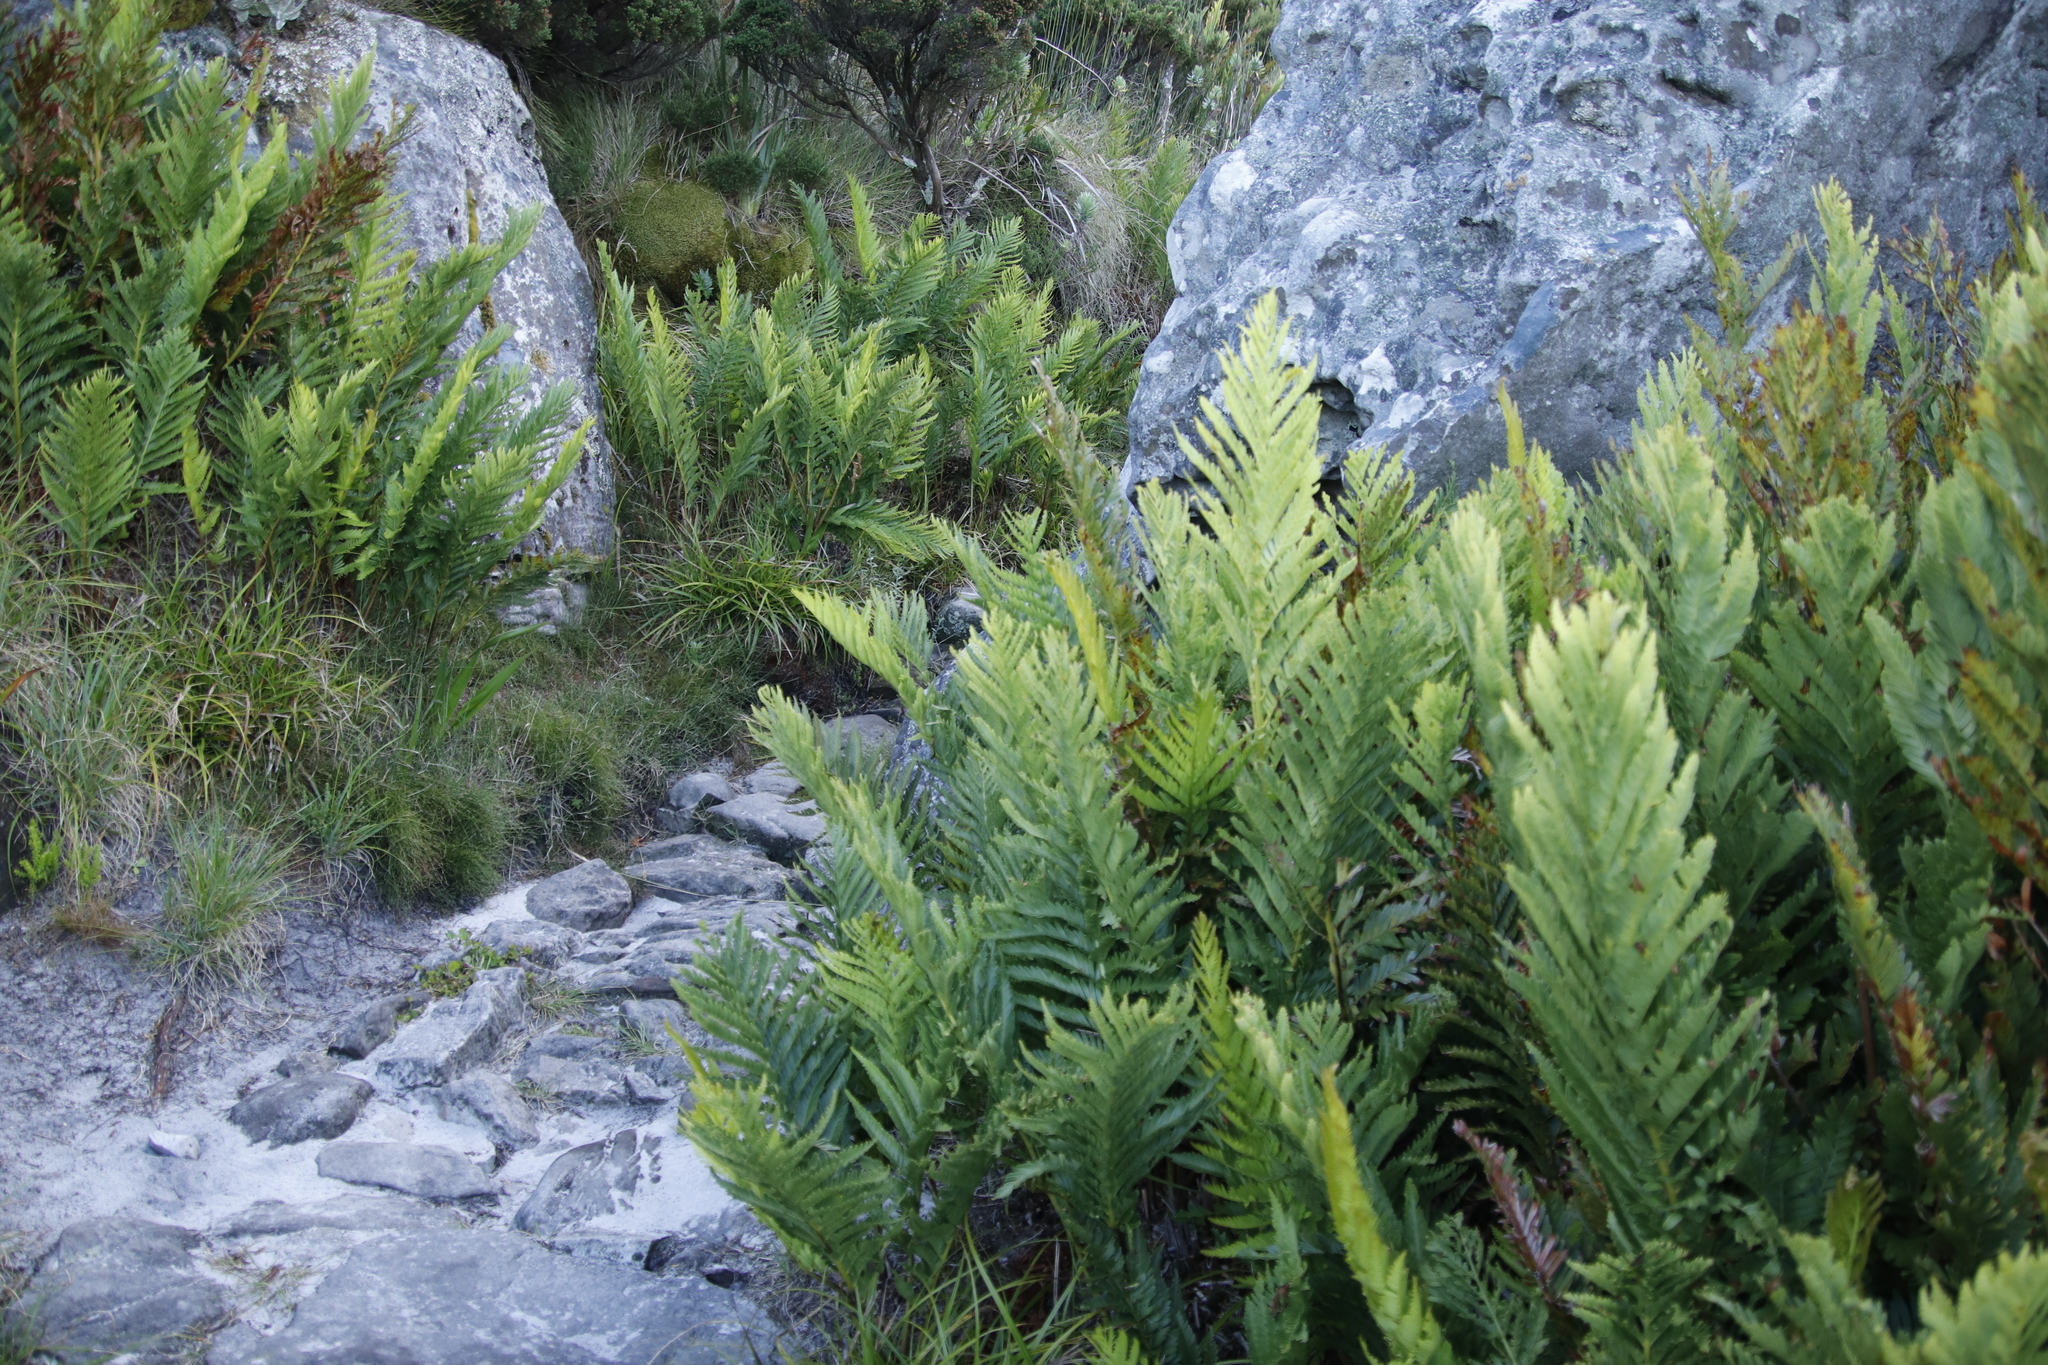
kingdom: Plantae
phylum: Tracheophyta
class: Polypodiopsida
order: Osmundales
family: Osmundaceae
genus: Todea
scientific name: Todea barbara
